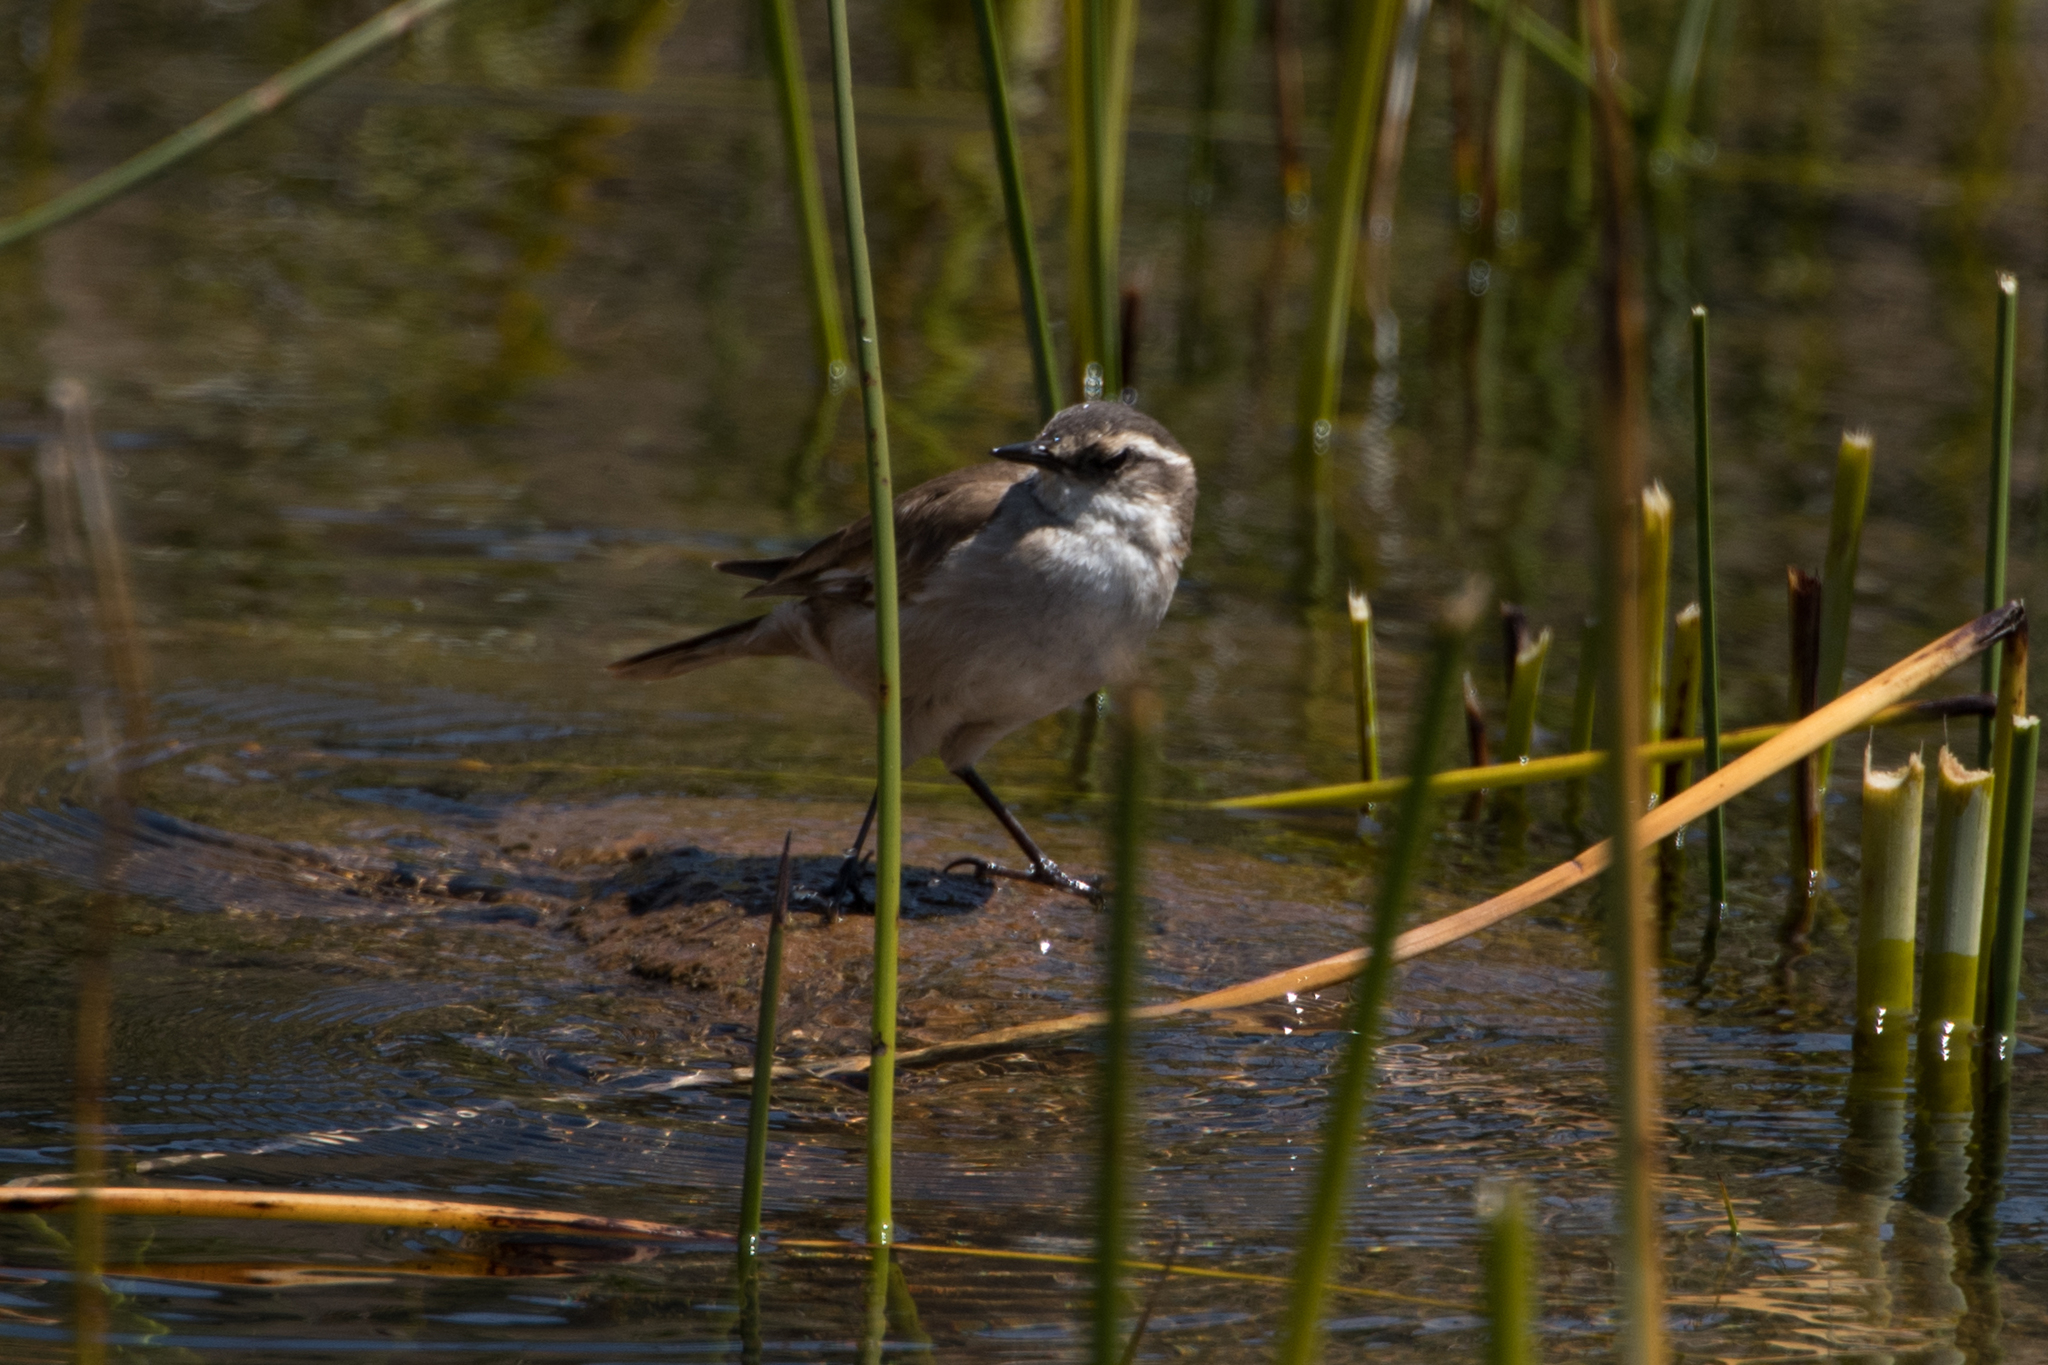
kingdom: Animalia
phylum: Chordata
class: Aves
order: Passeriformes
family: Furnariidae
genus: Cinclodes
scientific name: Cinclodes fuscus
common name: Buff-winged cinclodes
